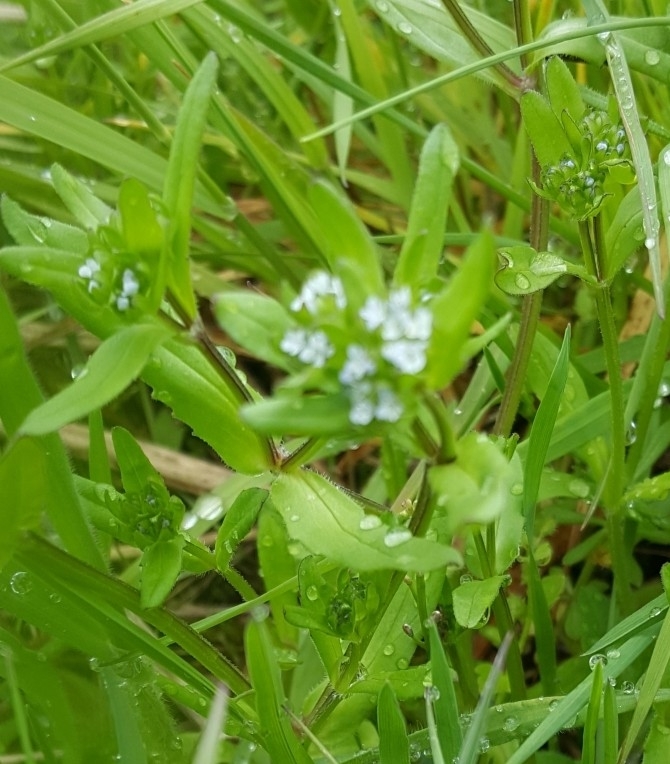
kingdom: Plantae
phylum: Tracheophyta
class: Magnoliopsida
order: Dipsacales
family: Caprifoliaceae
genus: Valerianella
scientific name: Valerianella locusta
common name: Common cornsalad
